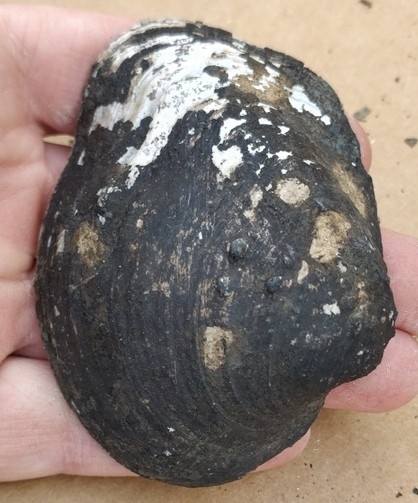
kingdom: Animalia
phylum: Mollusca
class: Bivalvia
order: Unionida
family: Unionidae
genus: Quadrula
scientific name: Quadrula quadrula
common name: Mapleleaf
